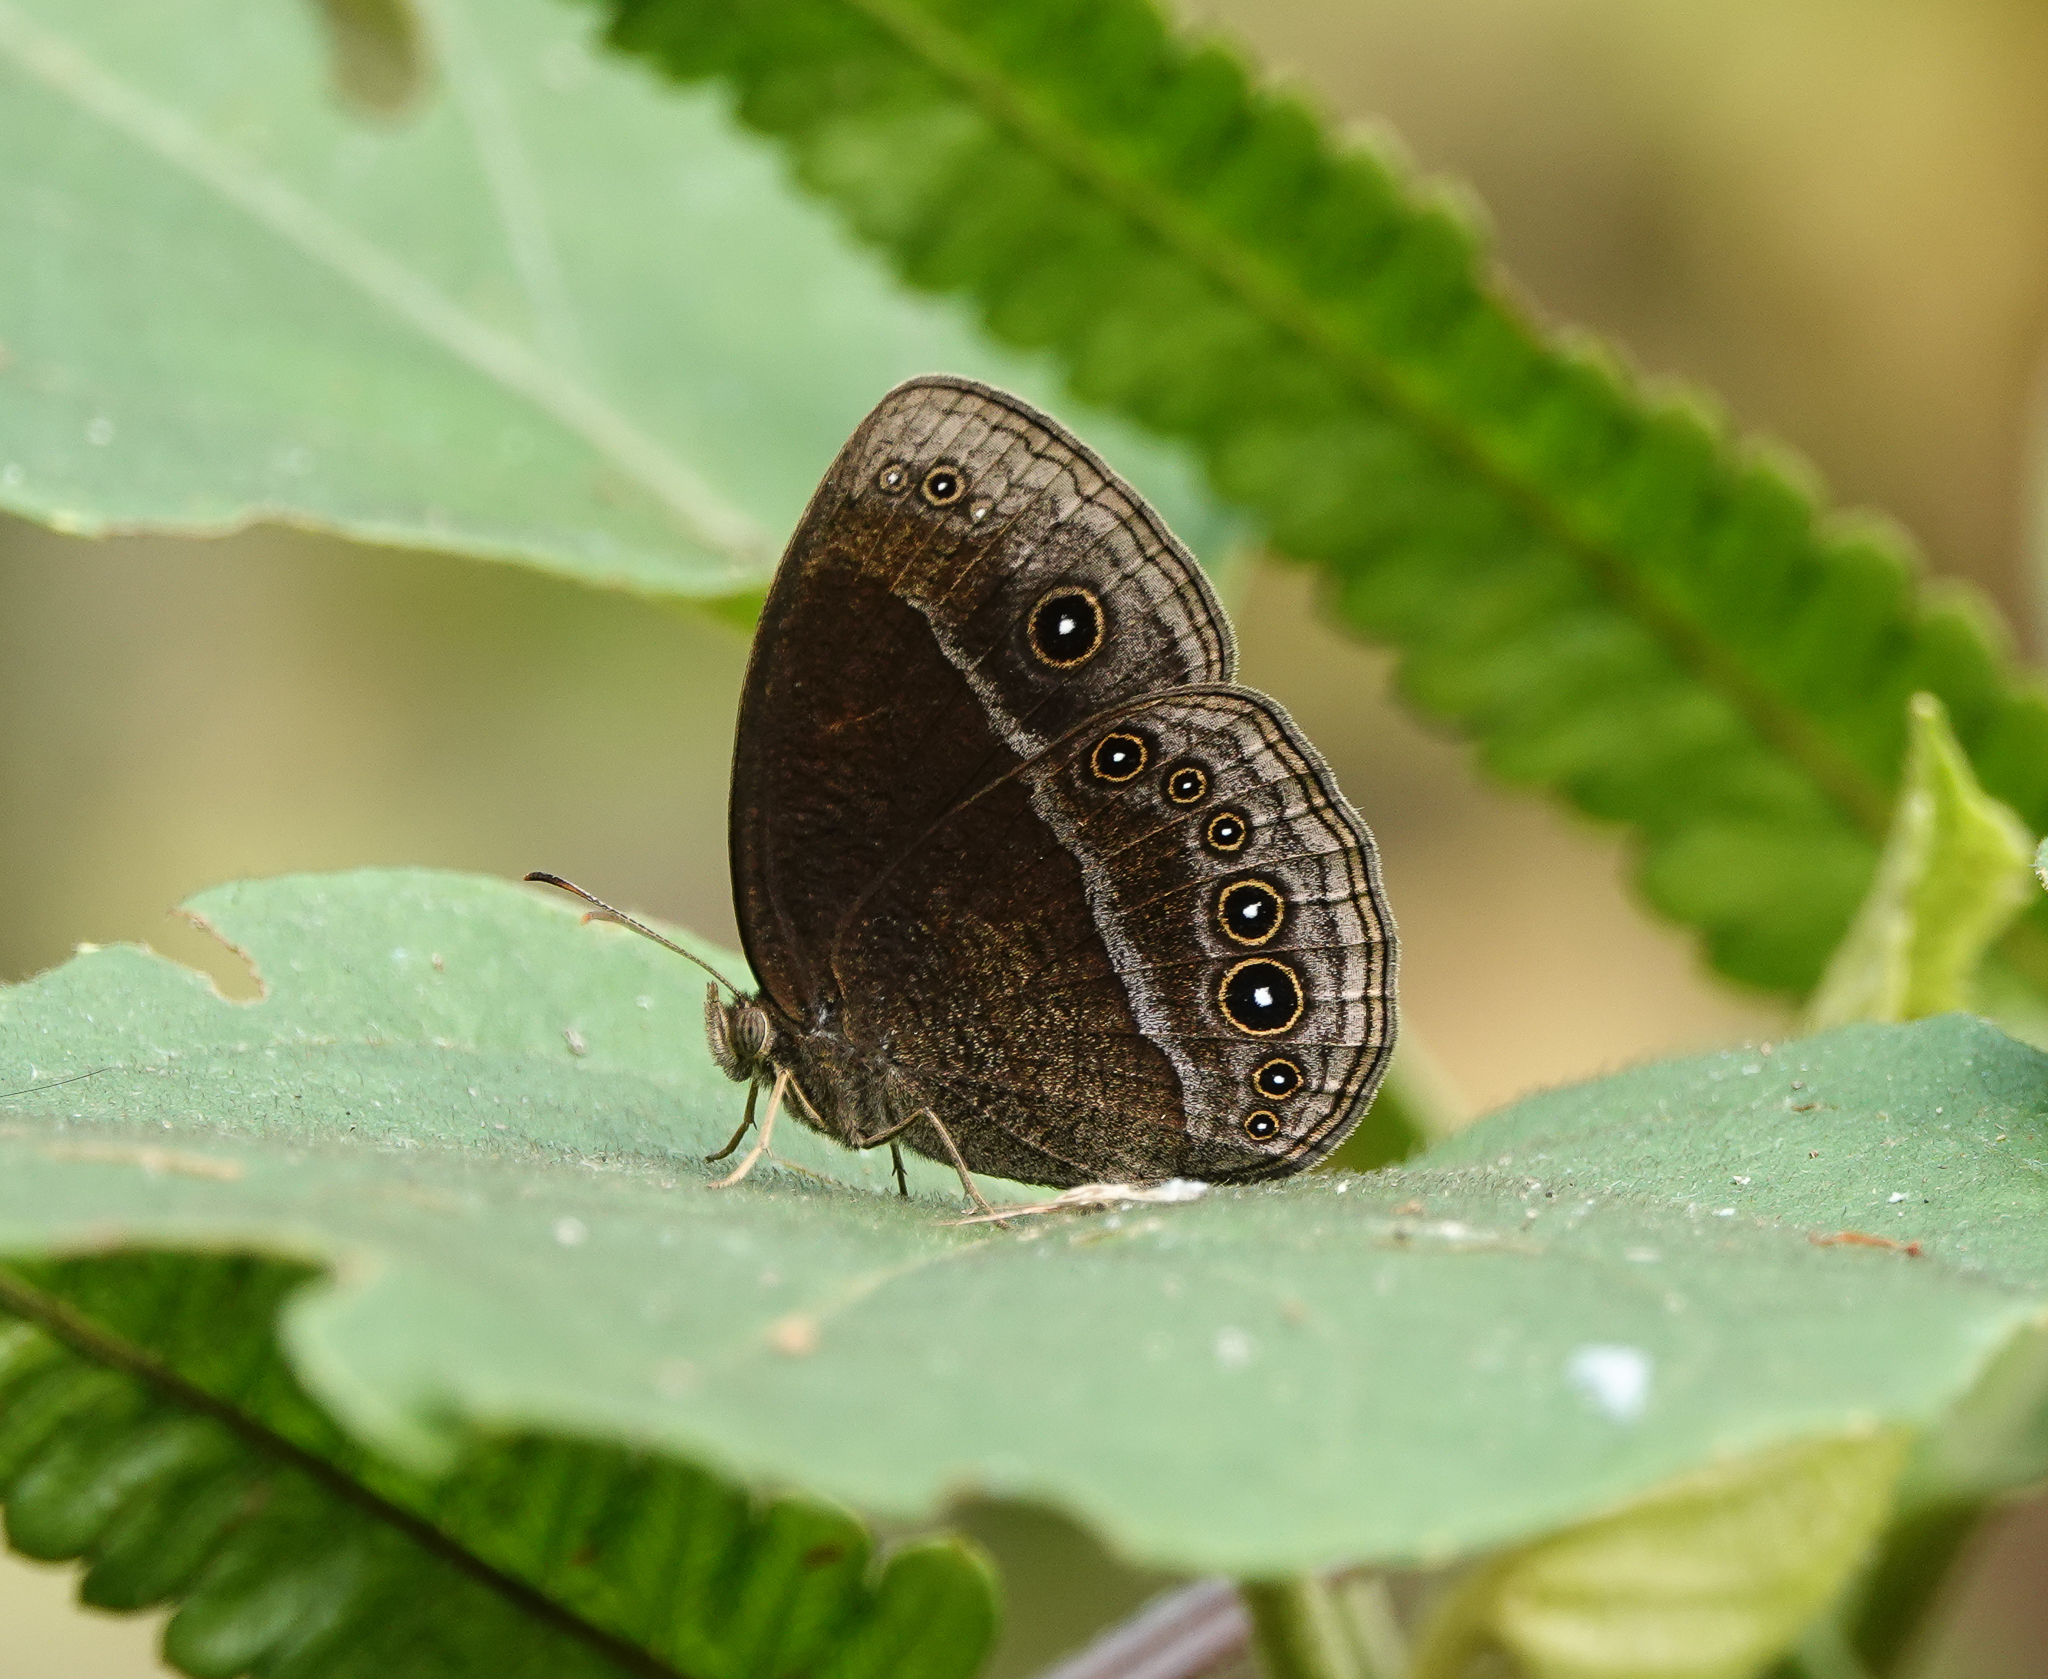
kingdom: Animalia
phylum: Arthropoda
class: Insecta
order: Lepidoptera
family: Nymphalidae
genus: Mycalesis
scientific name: Mycalesis Telinga inopia
